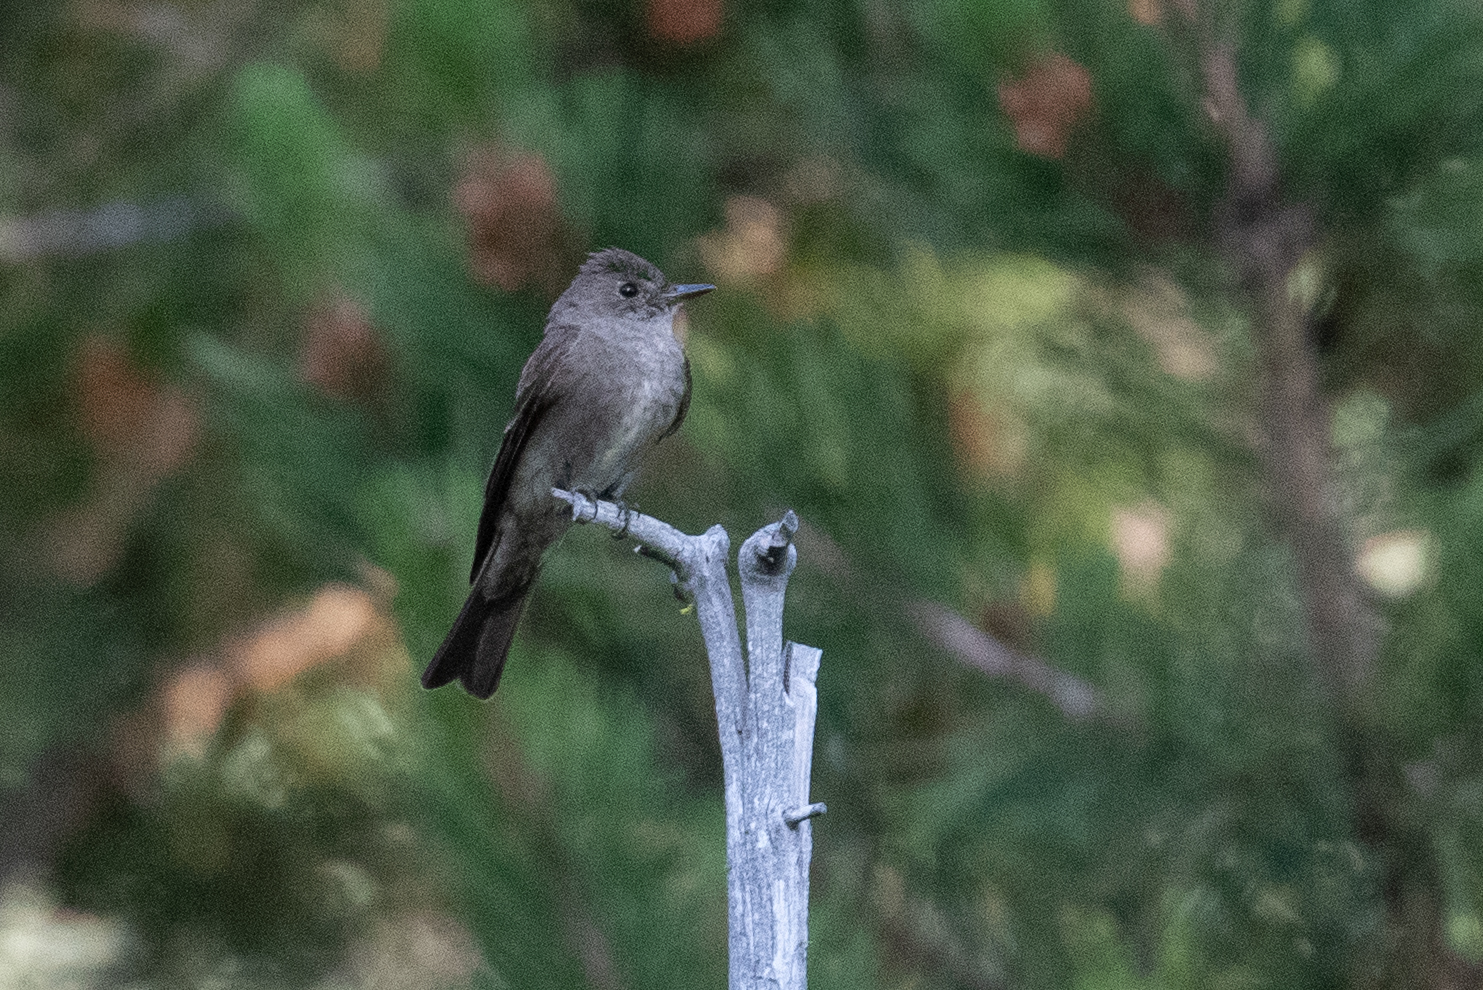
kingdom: Animalia
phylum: Chordata
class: Aves
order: Passeriformes
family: Tyrannidae
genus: Contopus
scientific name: Contopus sordidulus
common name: Western wood-pewee
